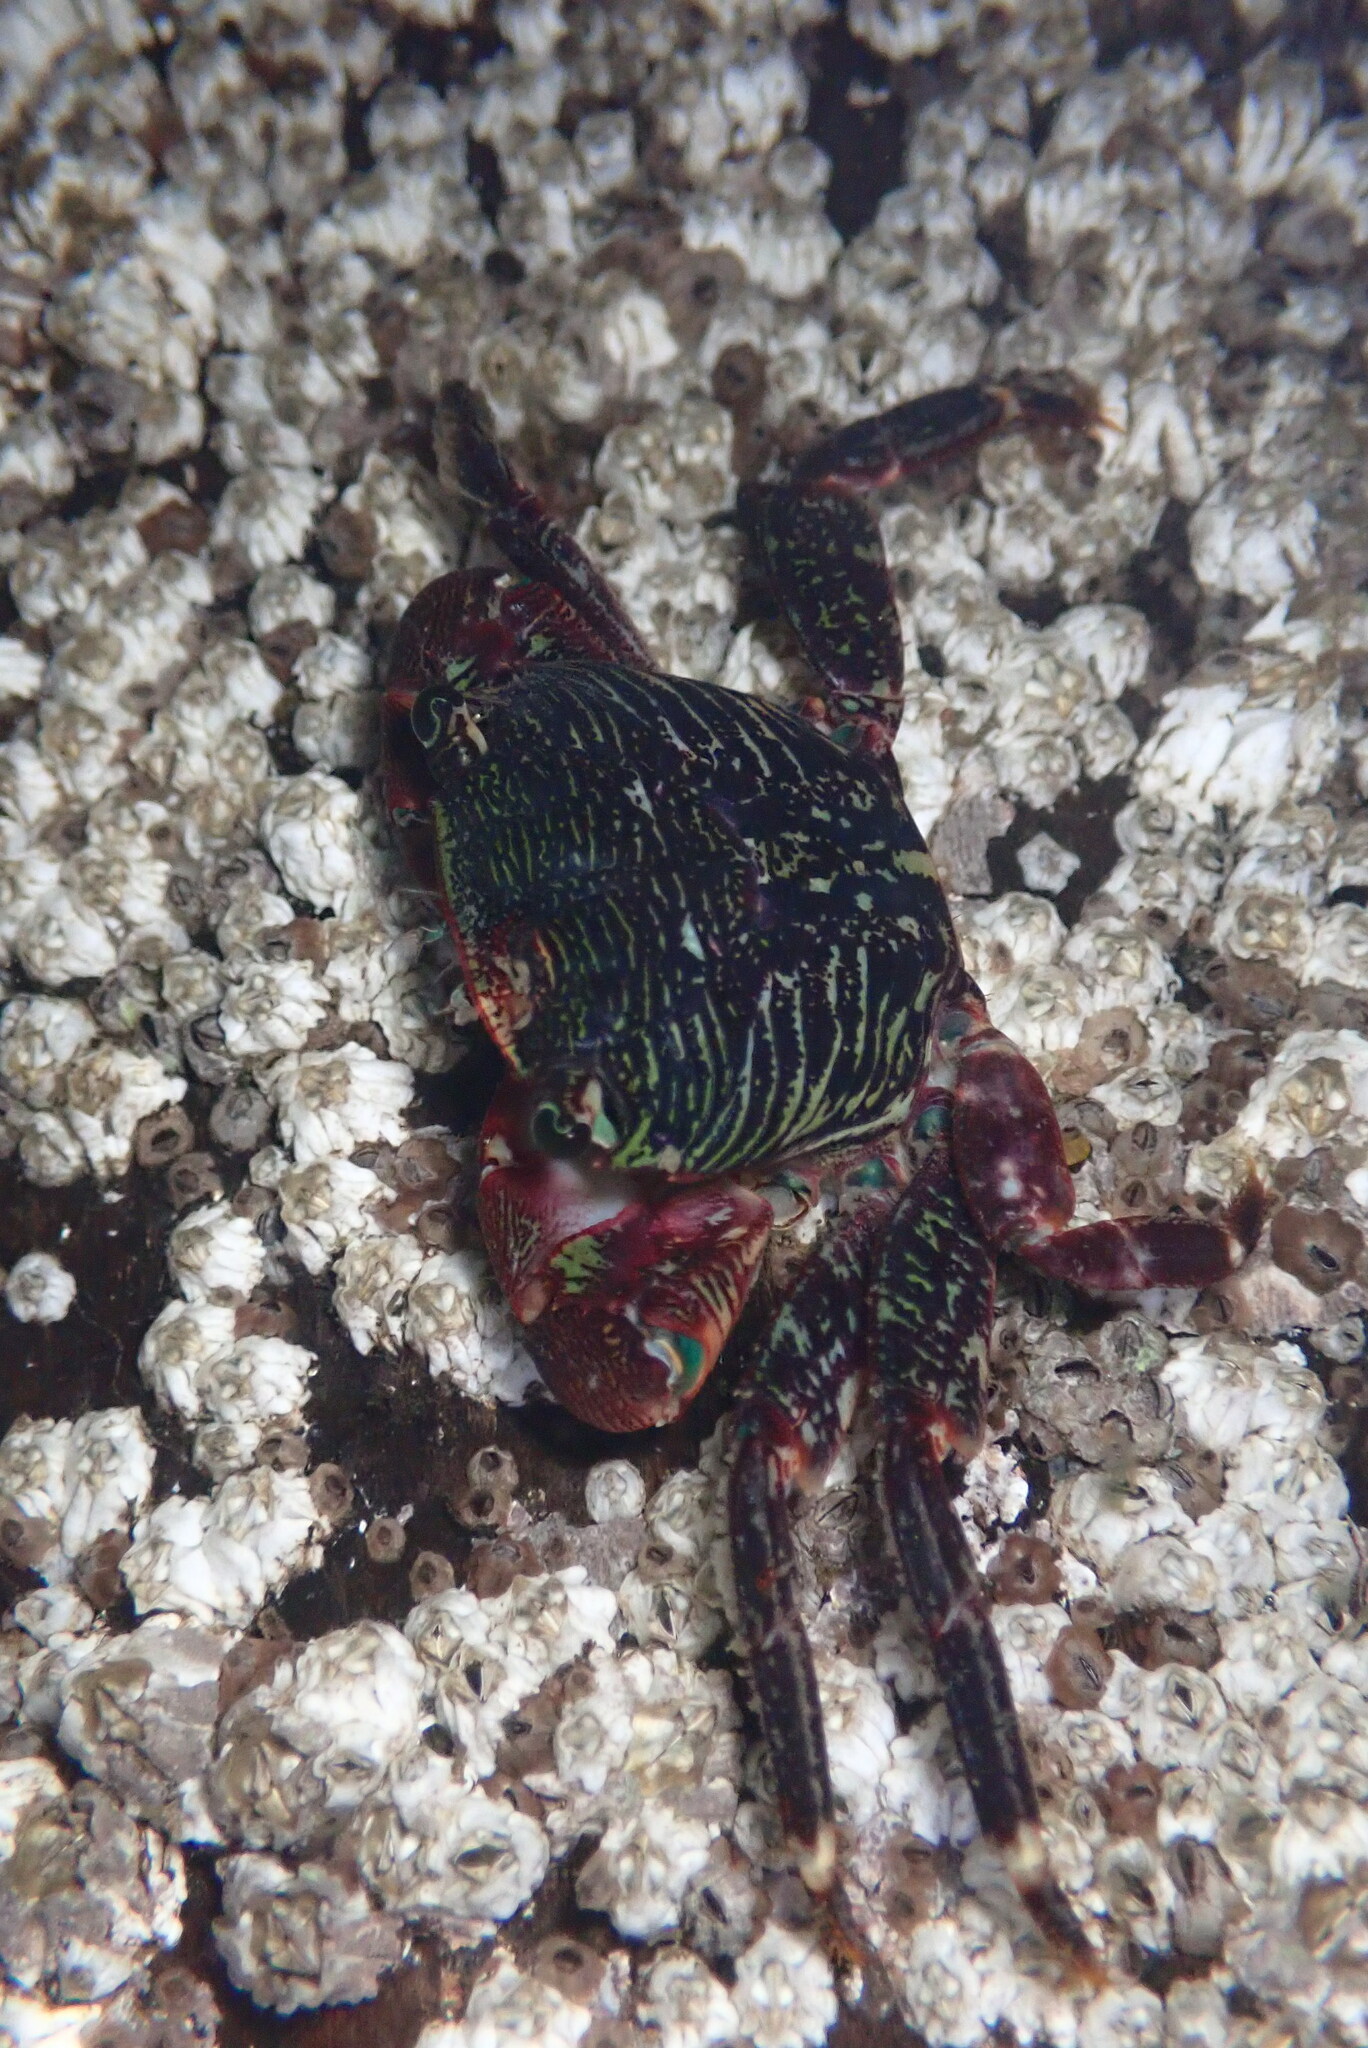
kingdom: Animalia
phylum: Arthropoda
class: Malacostraca
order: Decapoda
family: Grapsidae
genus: Pachygrapsus
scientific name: Pachygrapsus crassipes
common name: Striped shore crab
